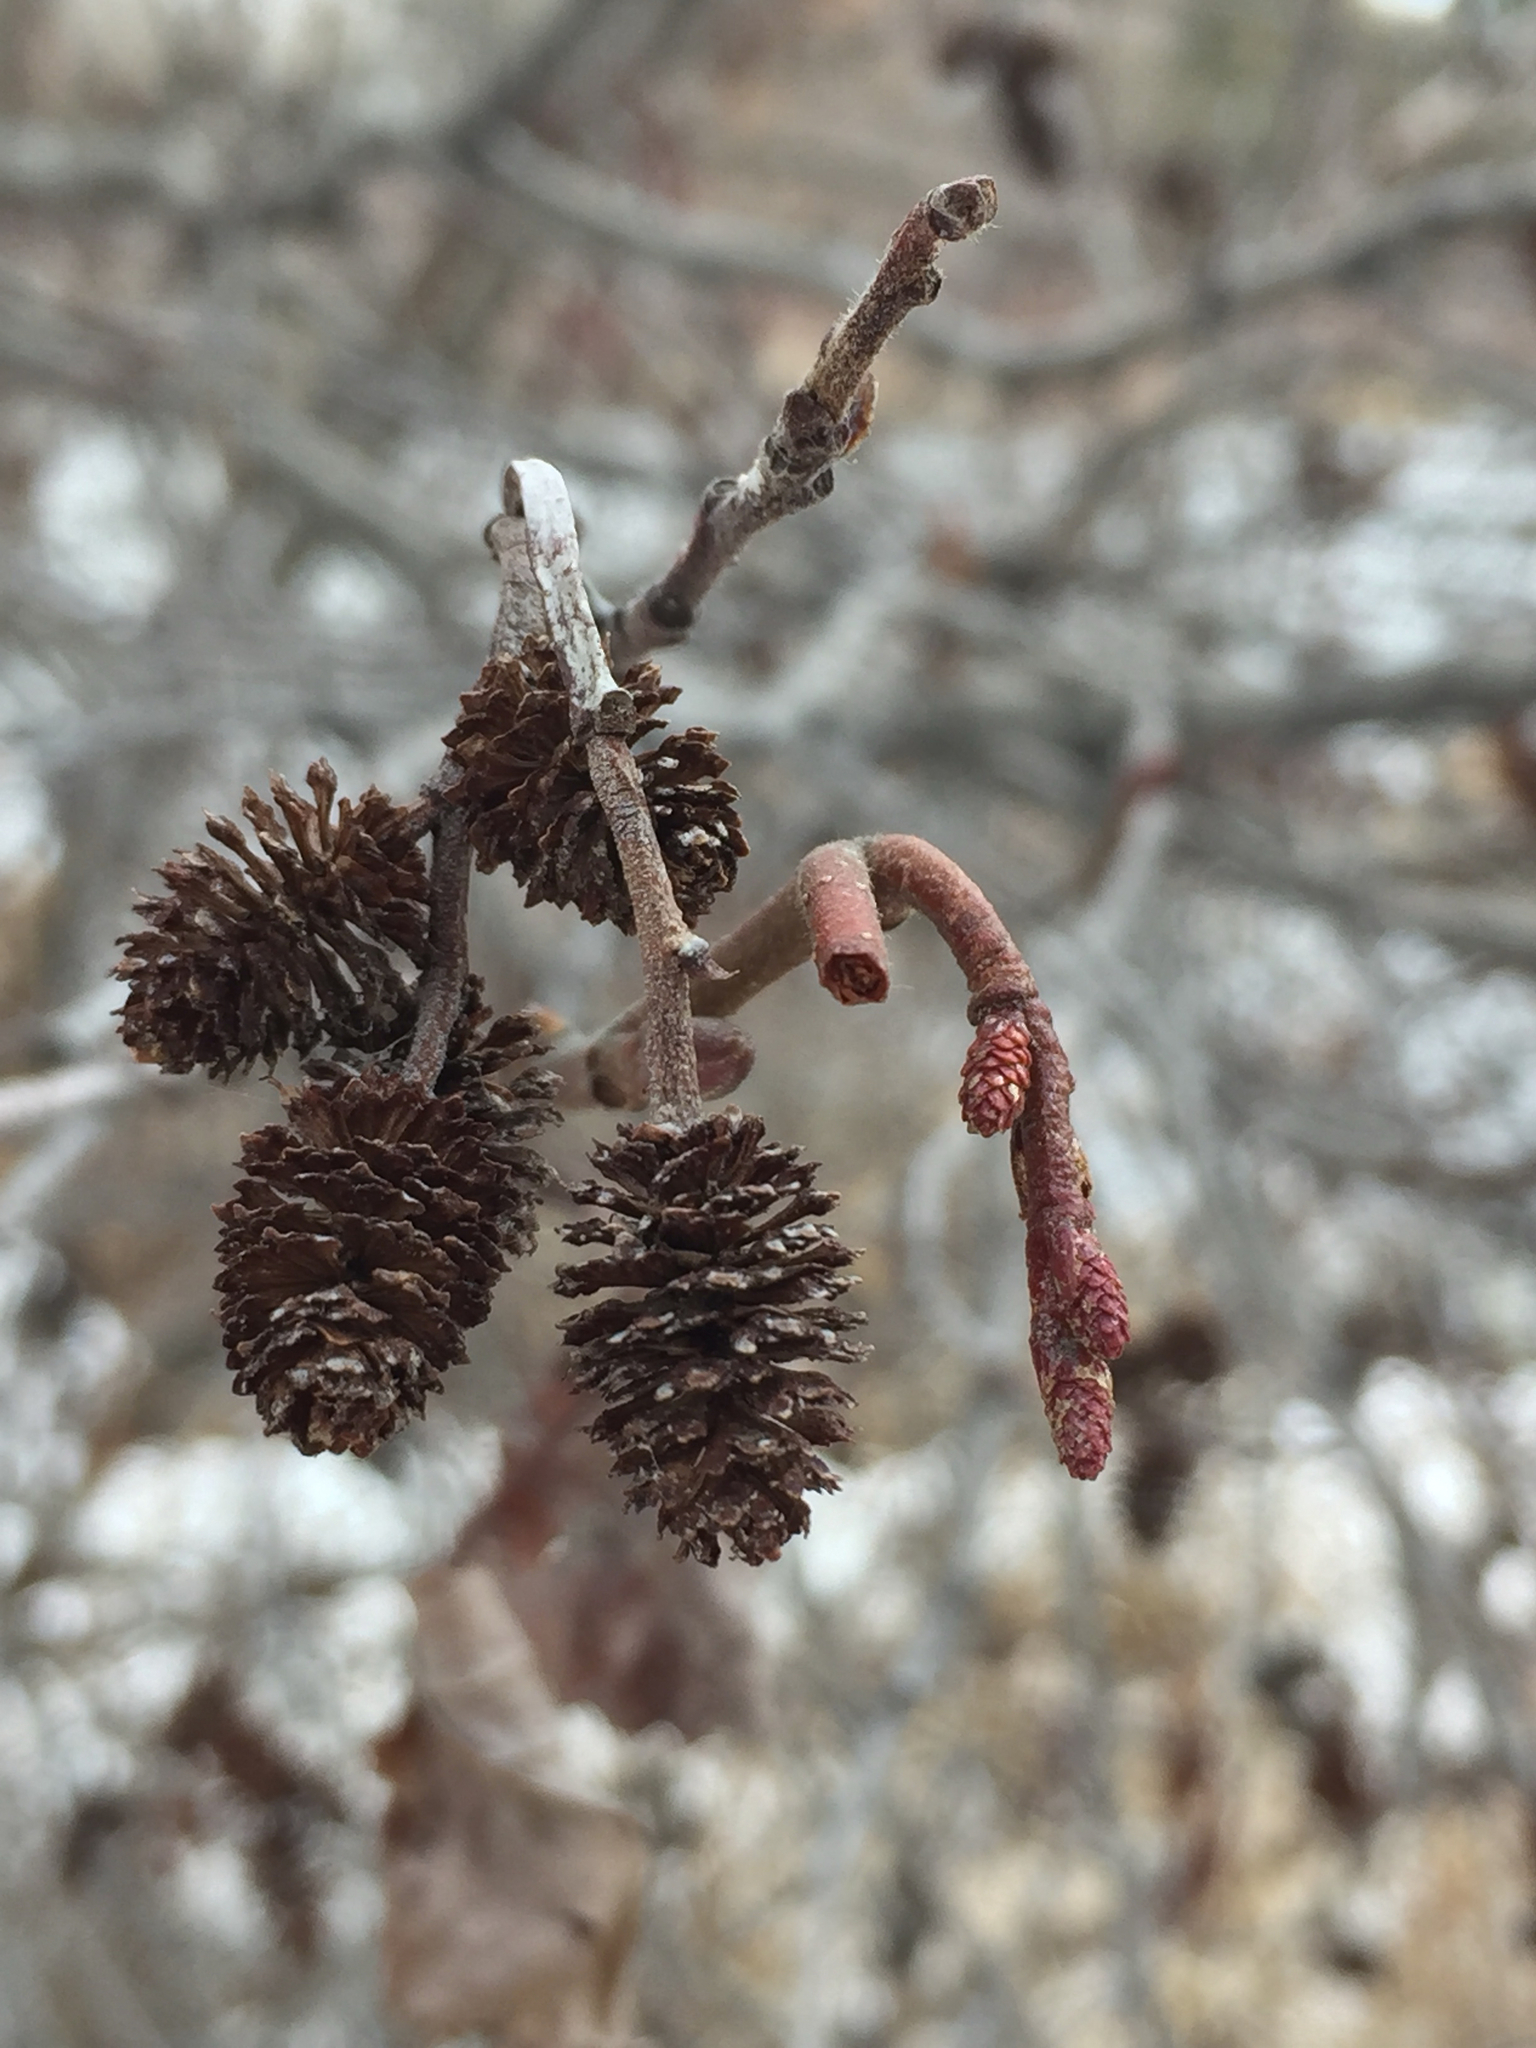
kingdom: Plantae
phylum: Tracheophyta
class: Magnoliopsida
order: Fagales
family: Betulaceae
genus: Alnus
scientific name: Alnus incana
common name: Grey alder
